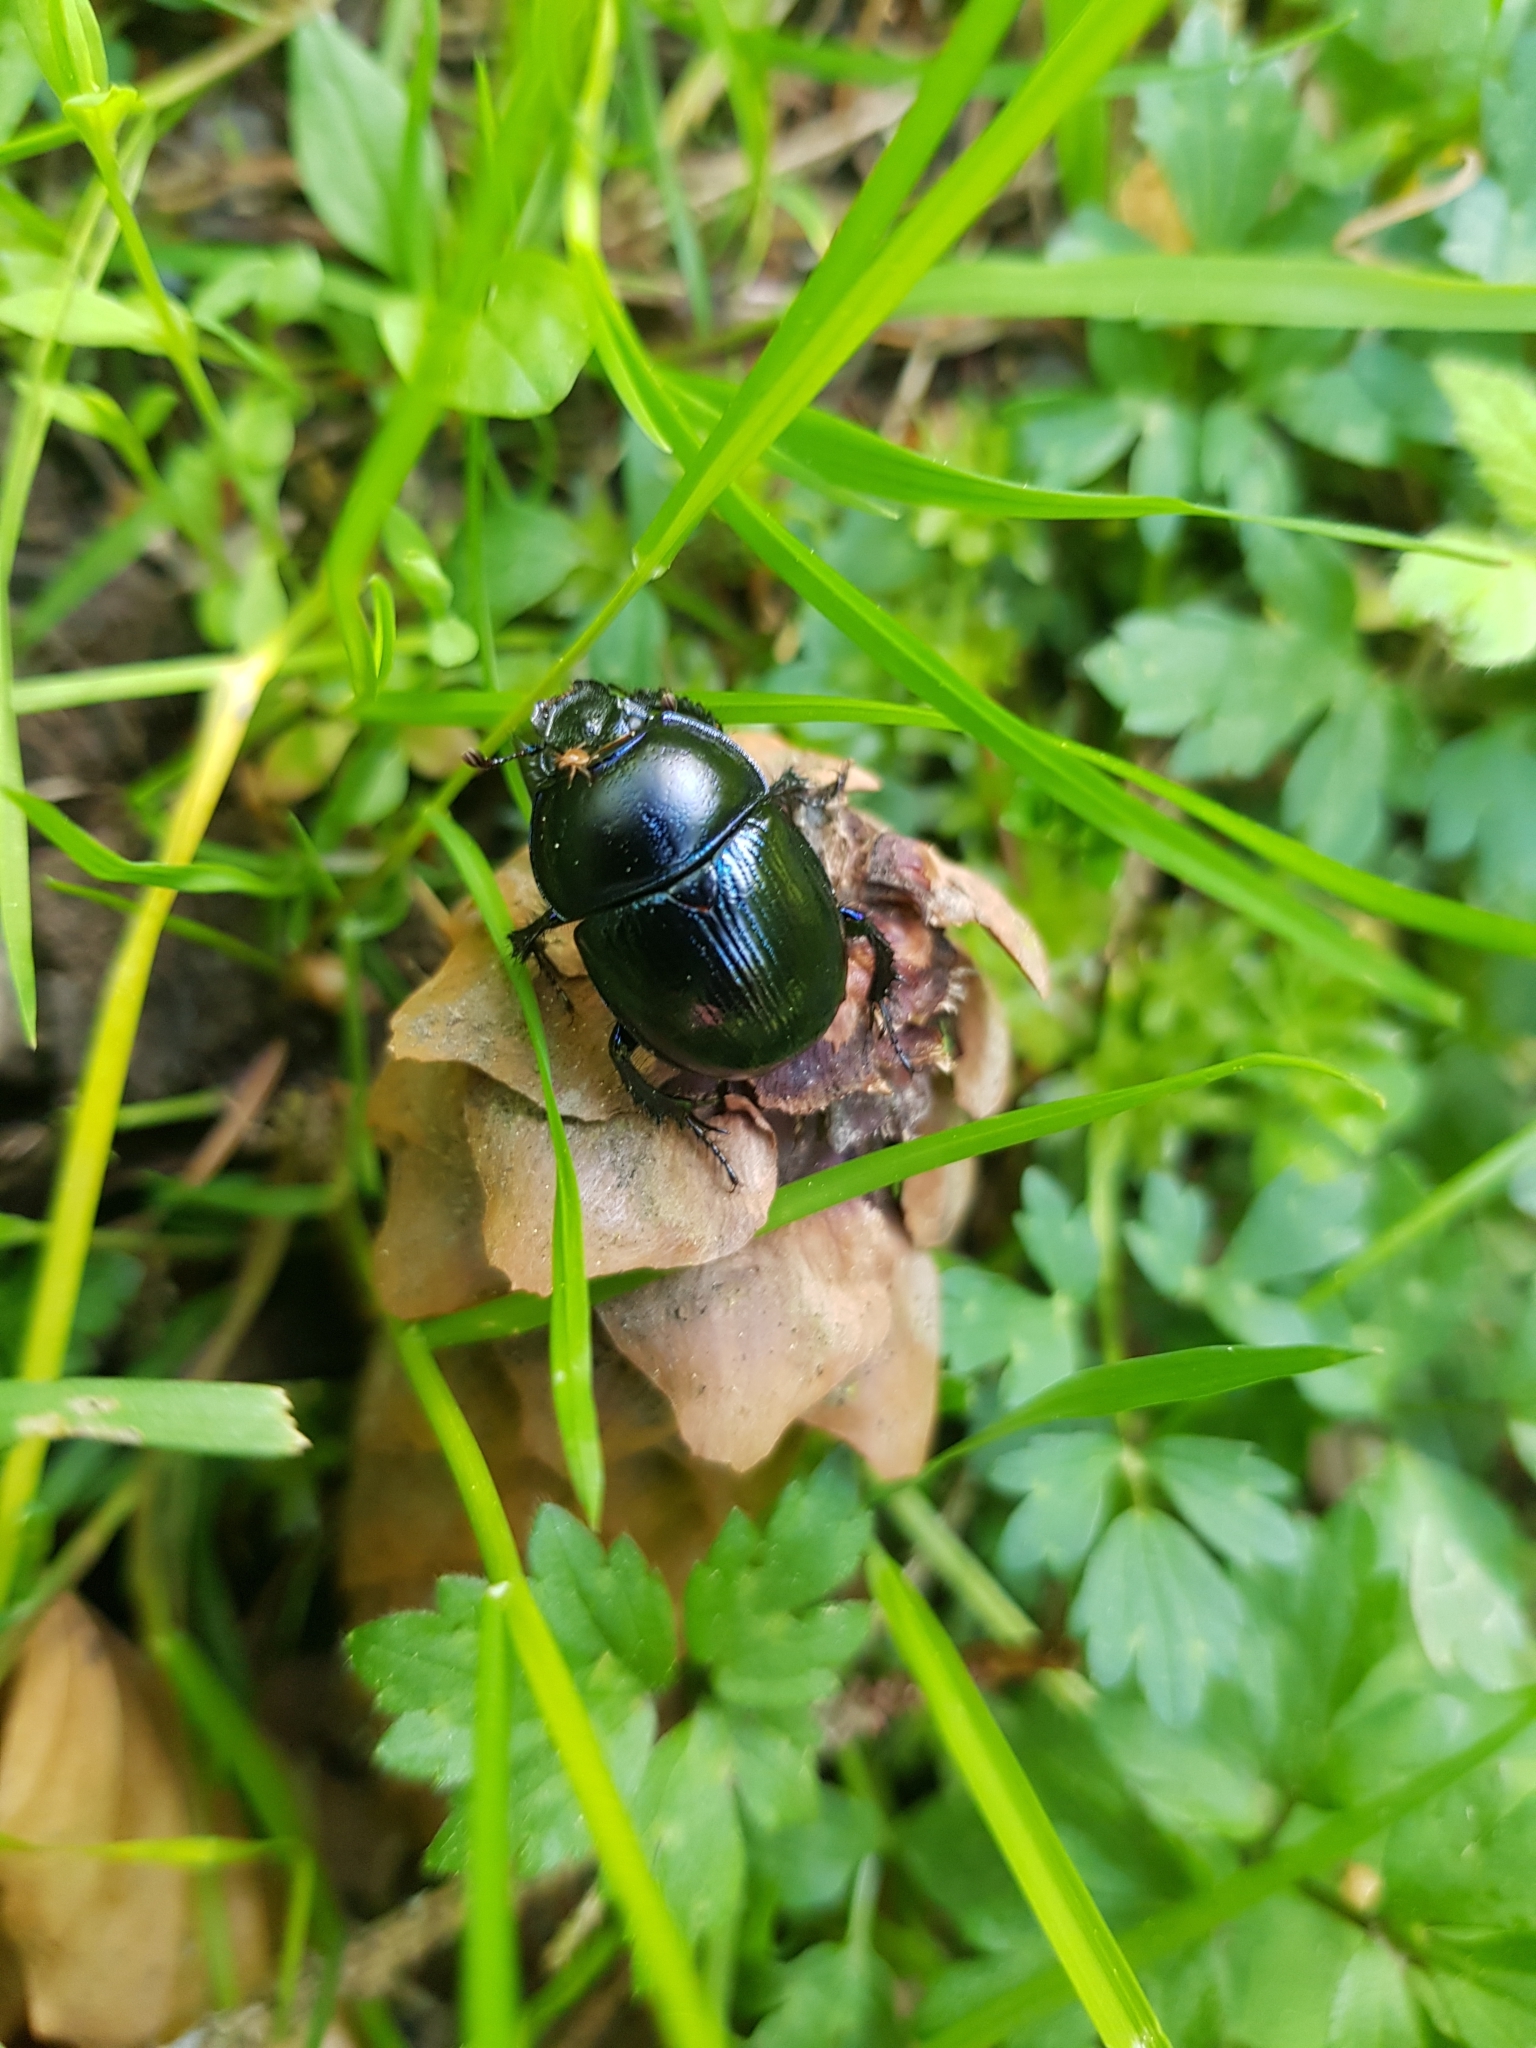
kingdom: Animalia
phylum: Arthropoda
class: Insecta
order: Coleoptera
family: Geotrupidae
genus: Anoplotrupes
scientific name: Anoplotrupes stercorosus
